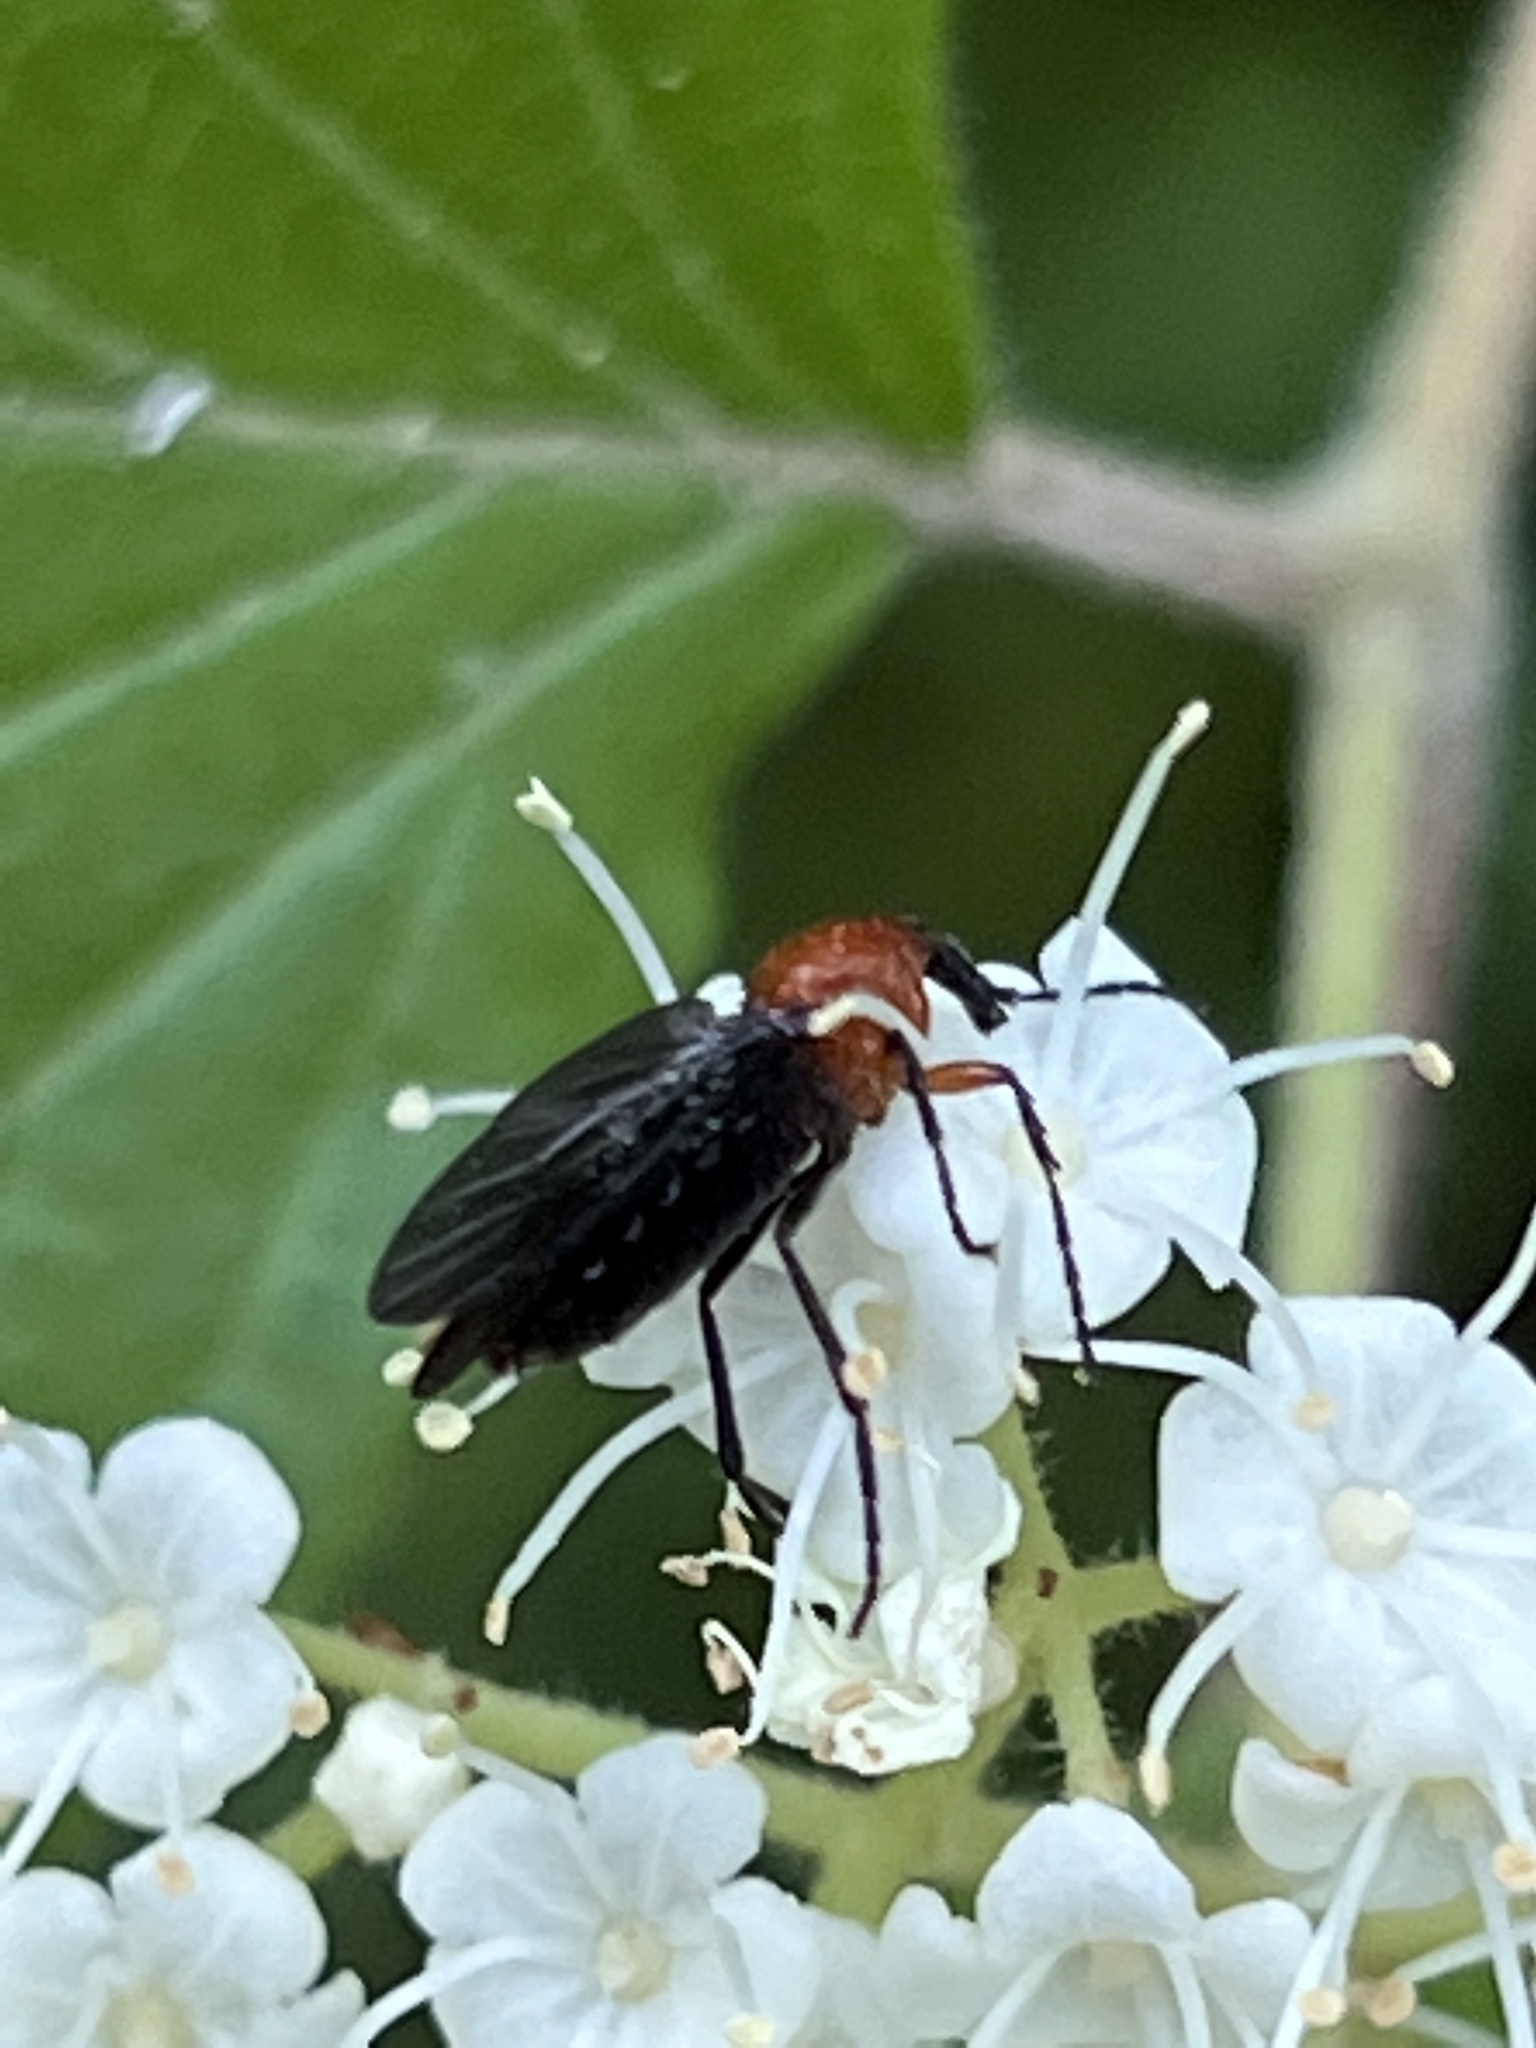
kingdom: Animalia
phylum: Arthropoda
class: Insecta
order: Diptera
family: Bibionidae
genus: Dilophus
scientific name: Dilophus spinipes
